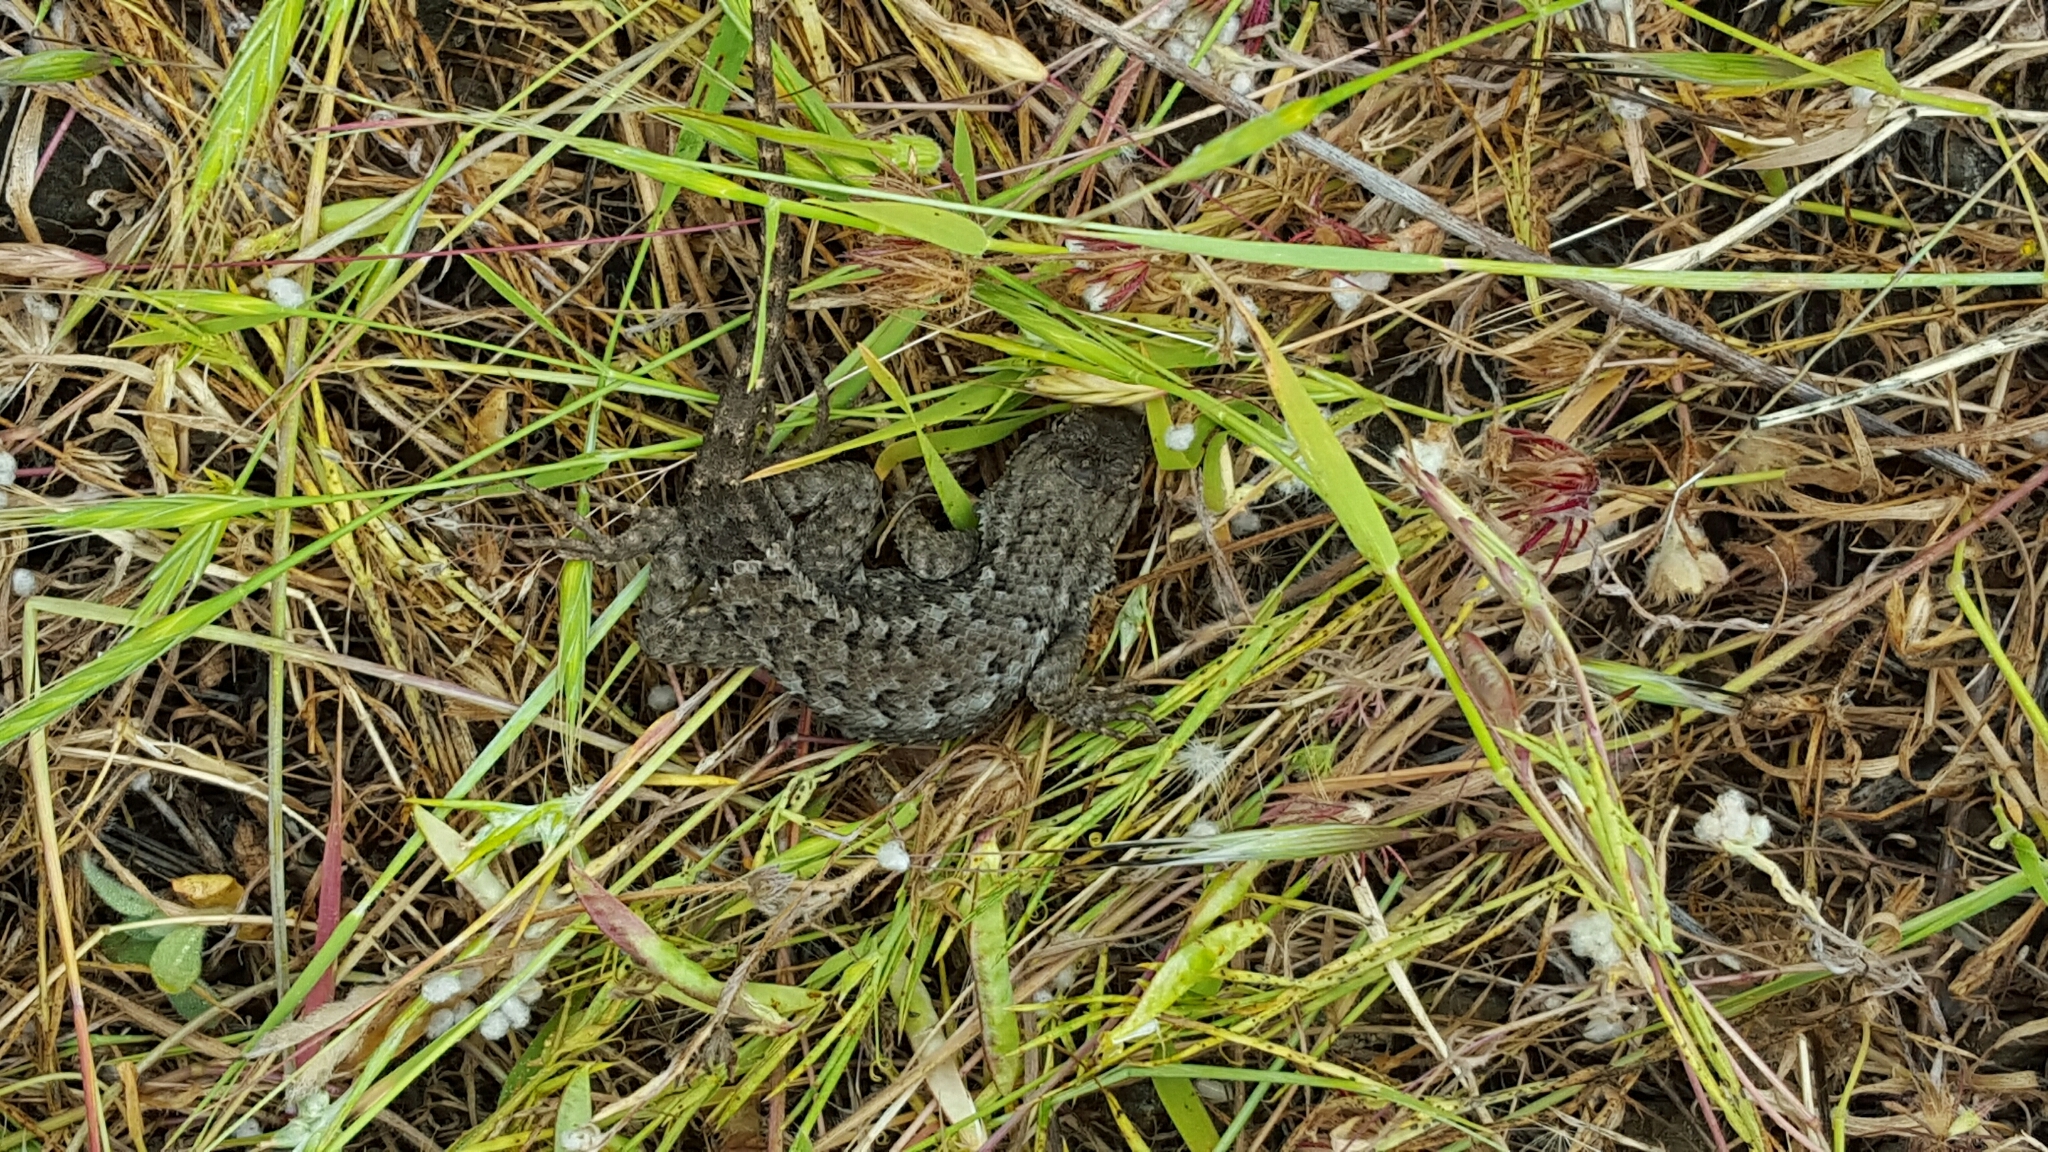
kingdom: Animalia
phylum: Chordata
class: Squamata
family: Phrynosomatidae
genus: Sceloporus
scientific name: Sceloporus occidentalis
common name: Western fence lizard
